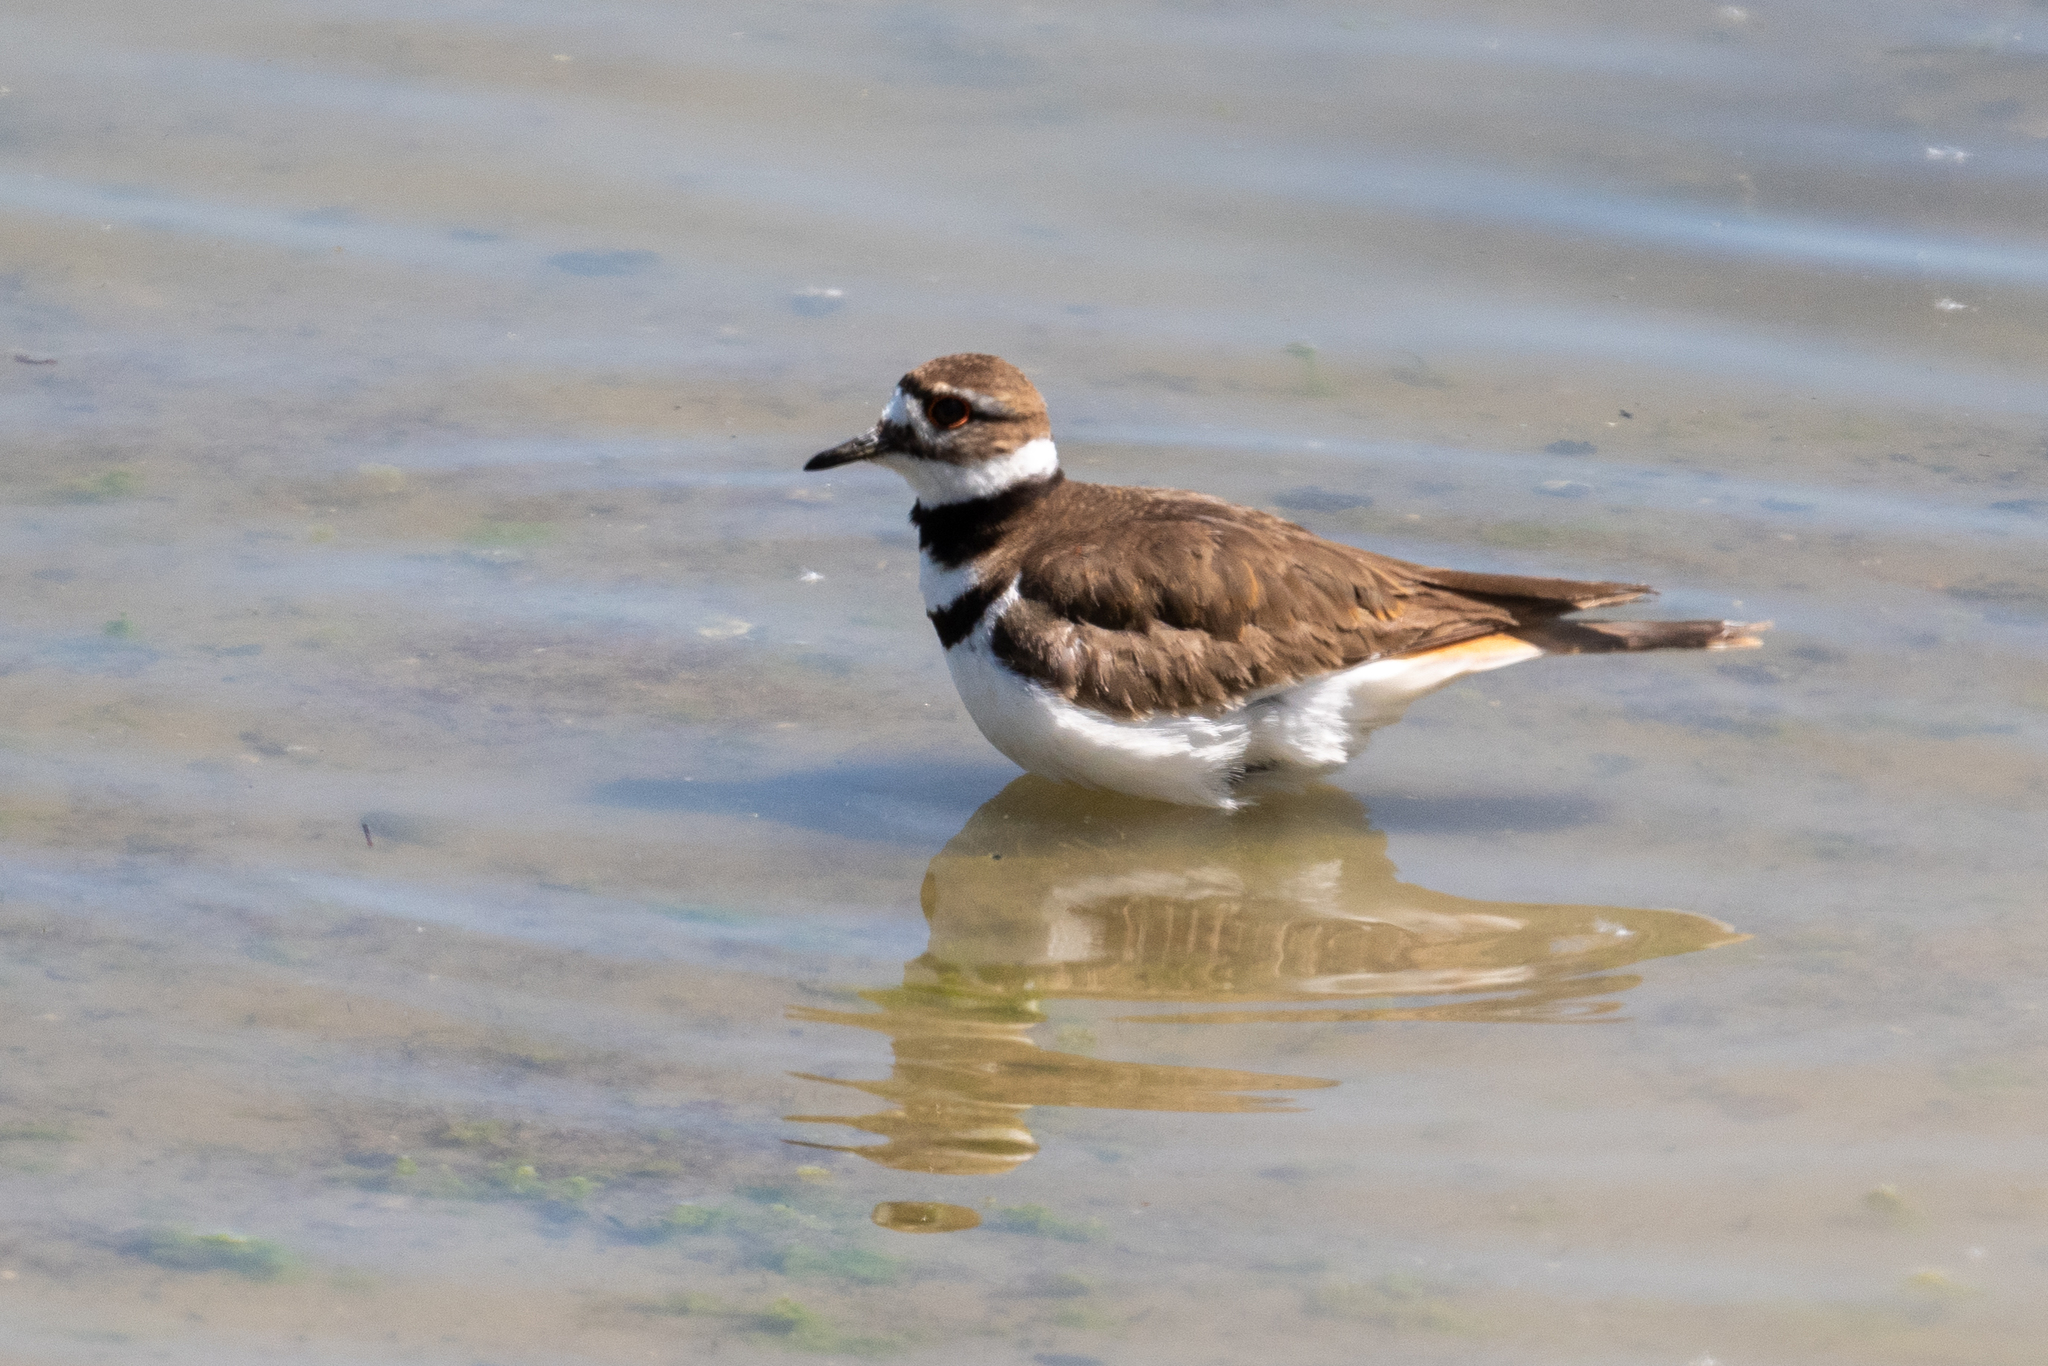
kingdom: Animalia
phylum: Chordata
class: Aves
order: Charadriiformes
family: Charadriidae
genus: Charadrius
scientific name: Charadrius vociferus
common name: Killdeer
